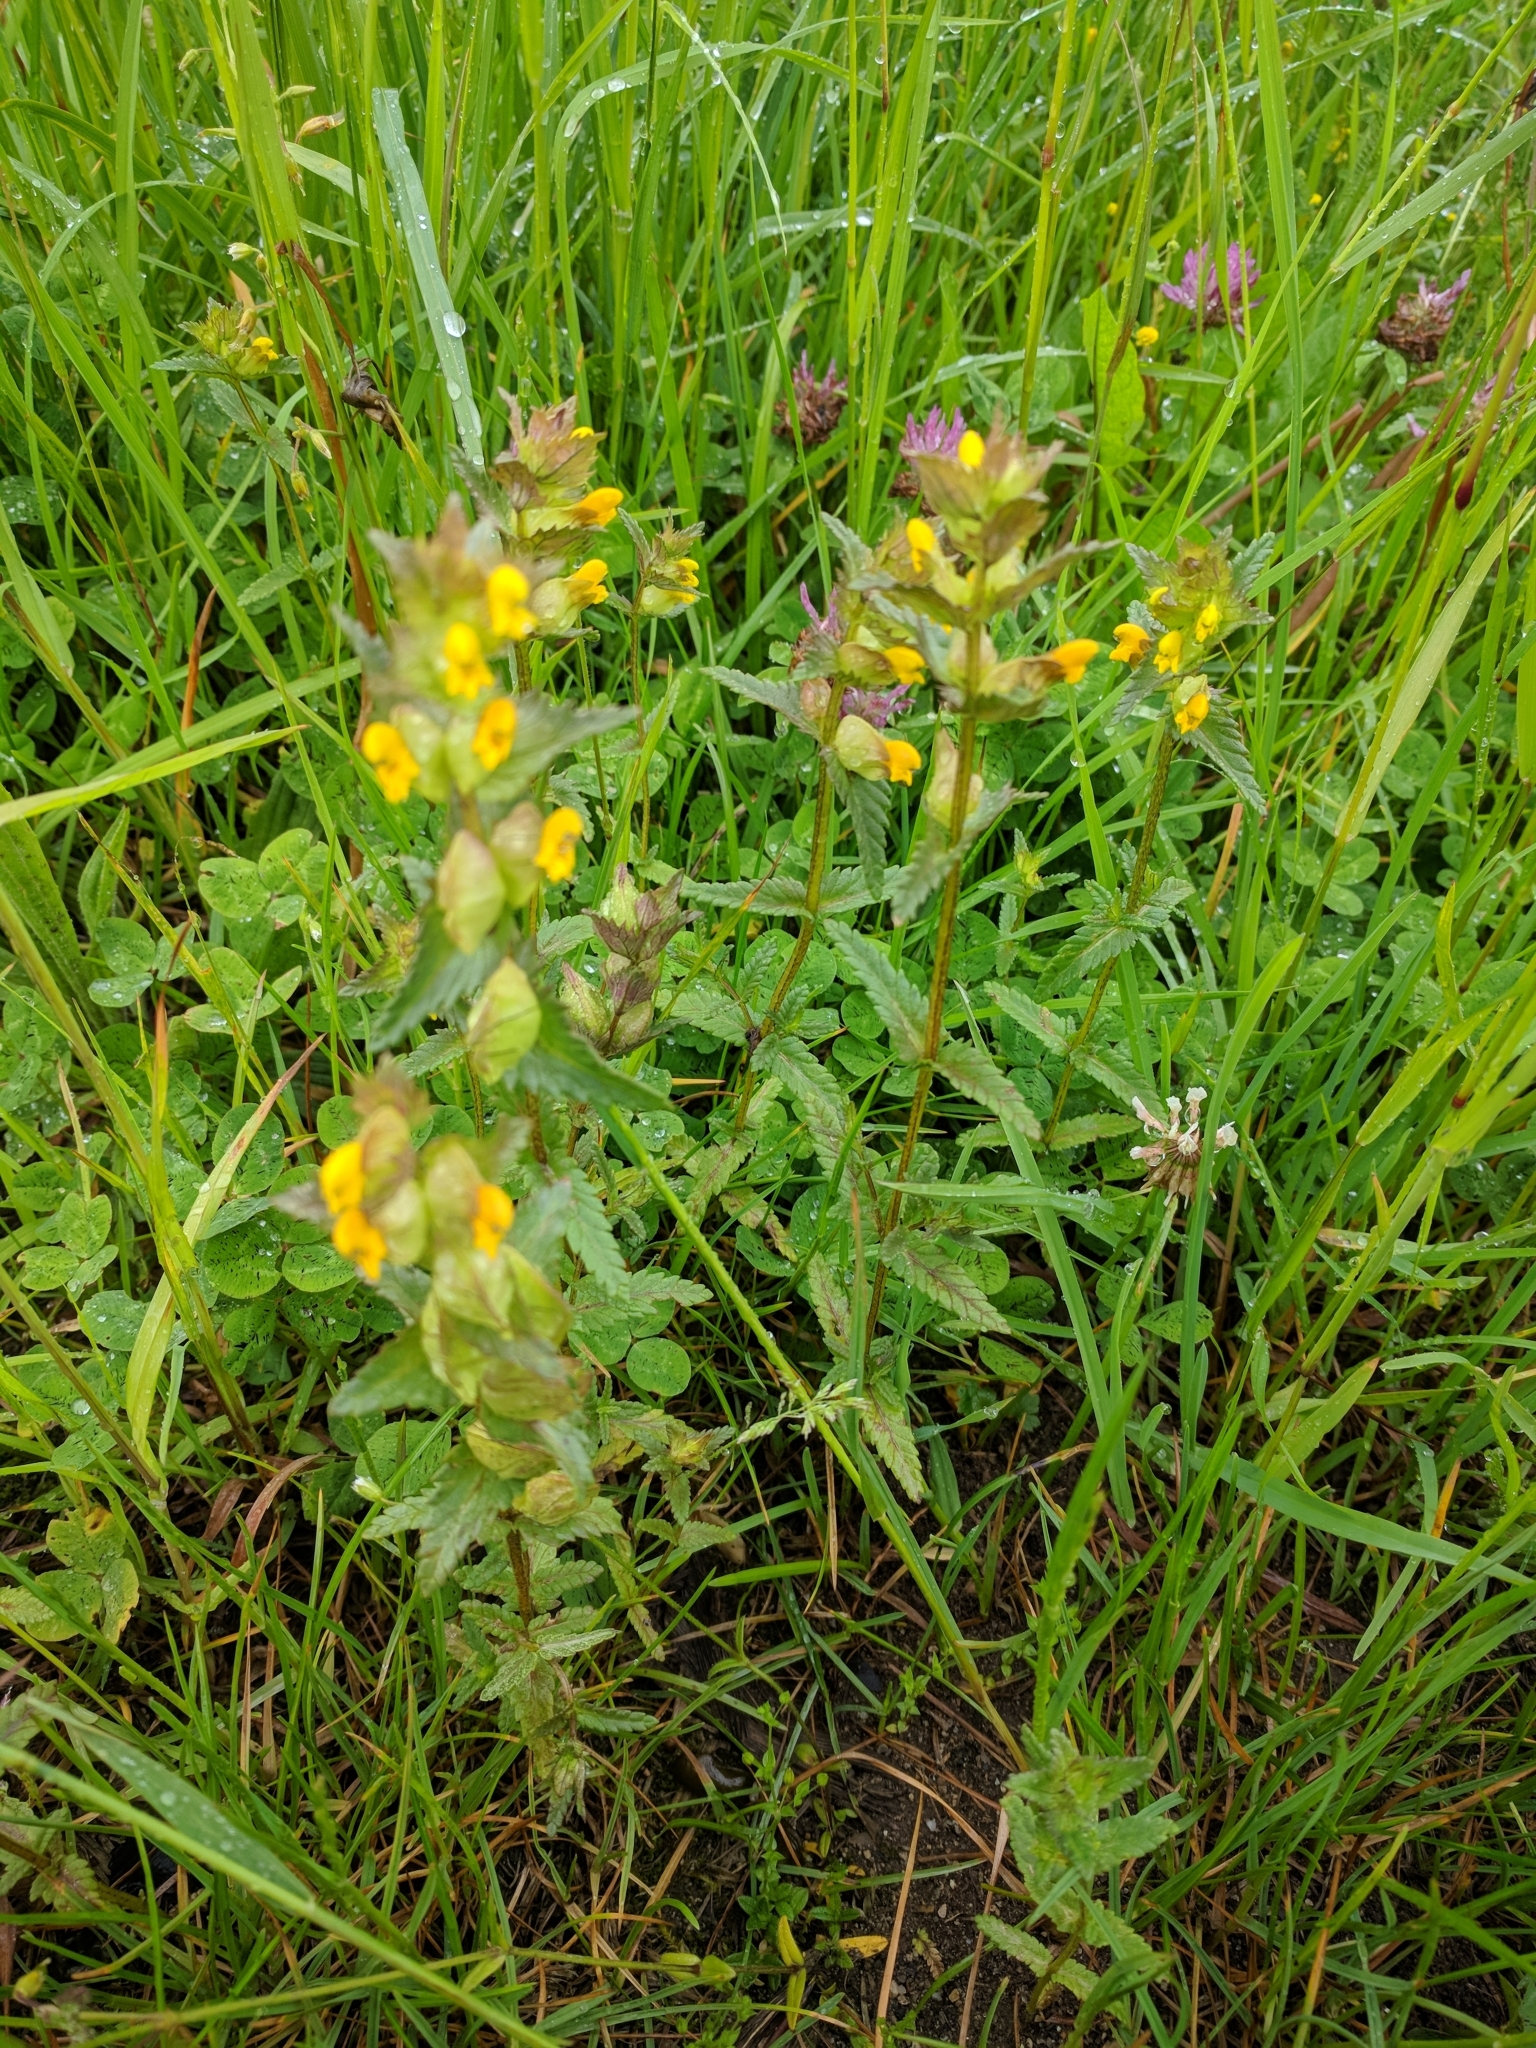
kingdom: Plantae
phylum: Tracheophyta
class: Magnoliopsida
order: Lamiales
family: Orobanchaceae
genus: Rhinanthus
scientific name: Rhinanthus minor
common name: Yellow-rattle
